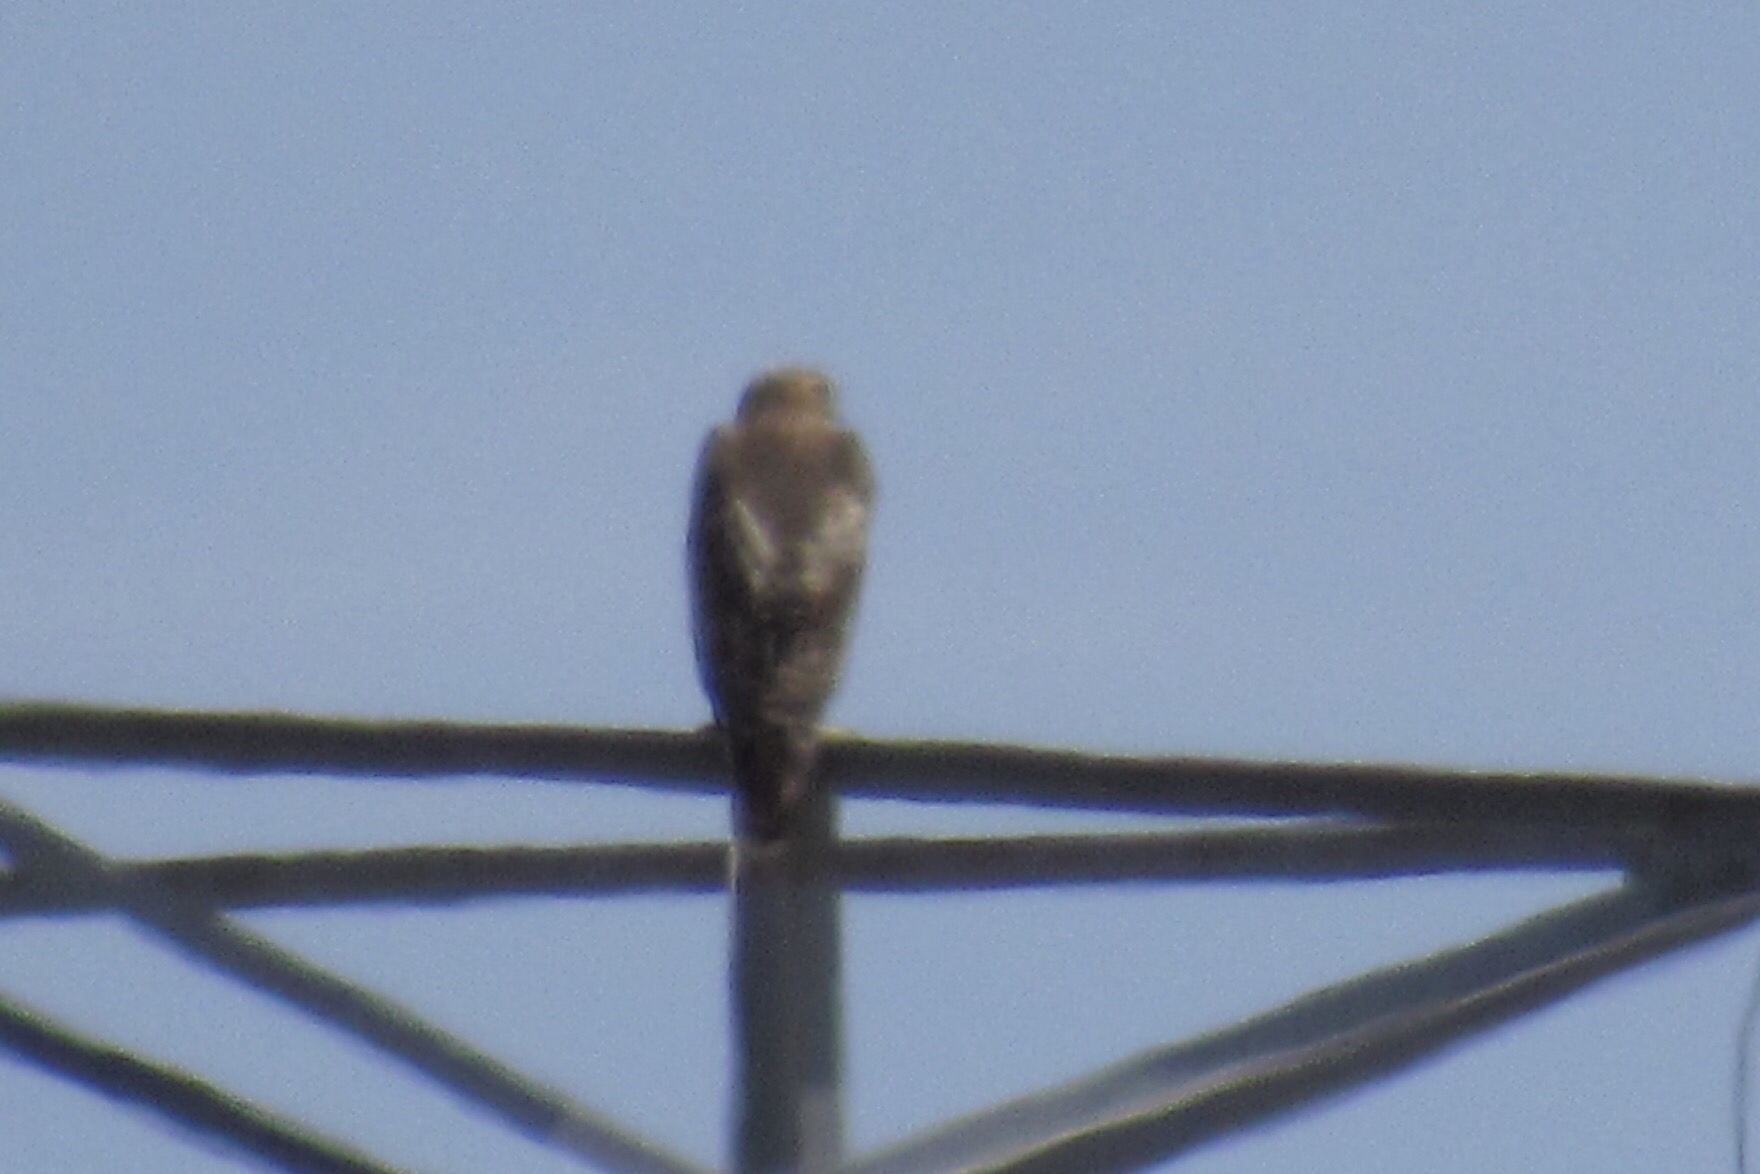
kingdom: Animalia
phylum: Chordata
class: Aves
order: Accipitriformes
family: Accipitridae
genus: Buteo
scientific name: Buteo jamaicensis
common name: Red-tailed hawk
